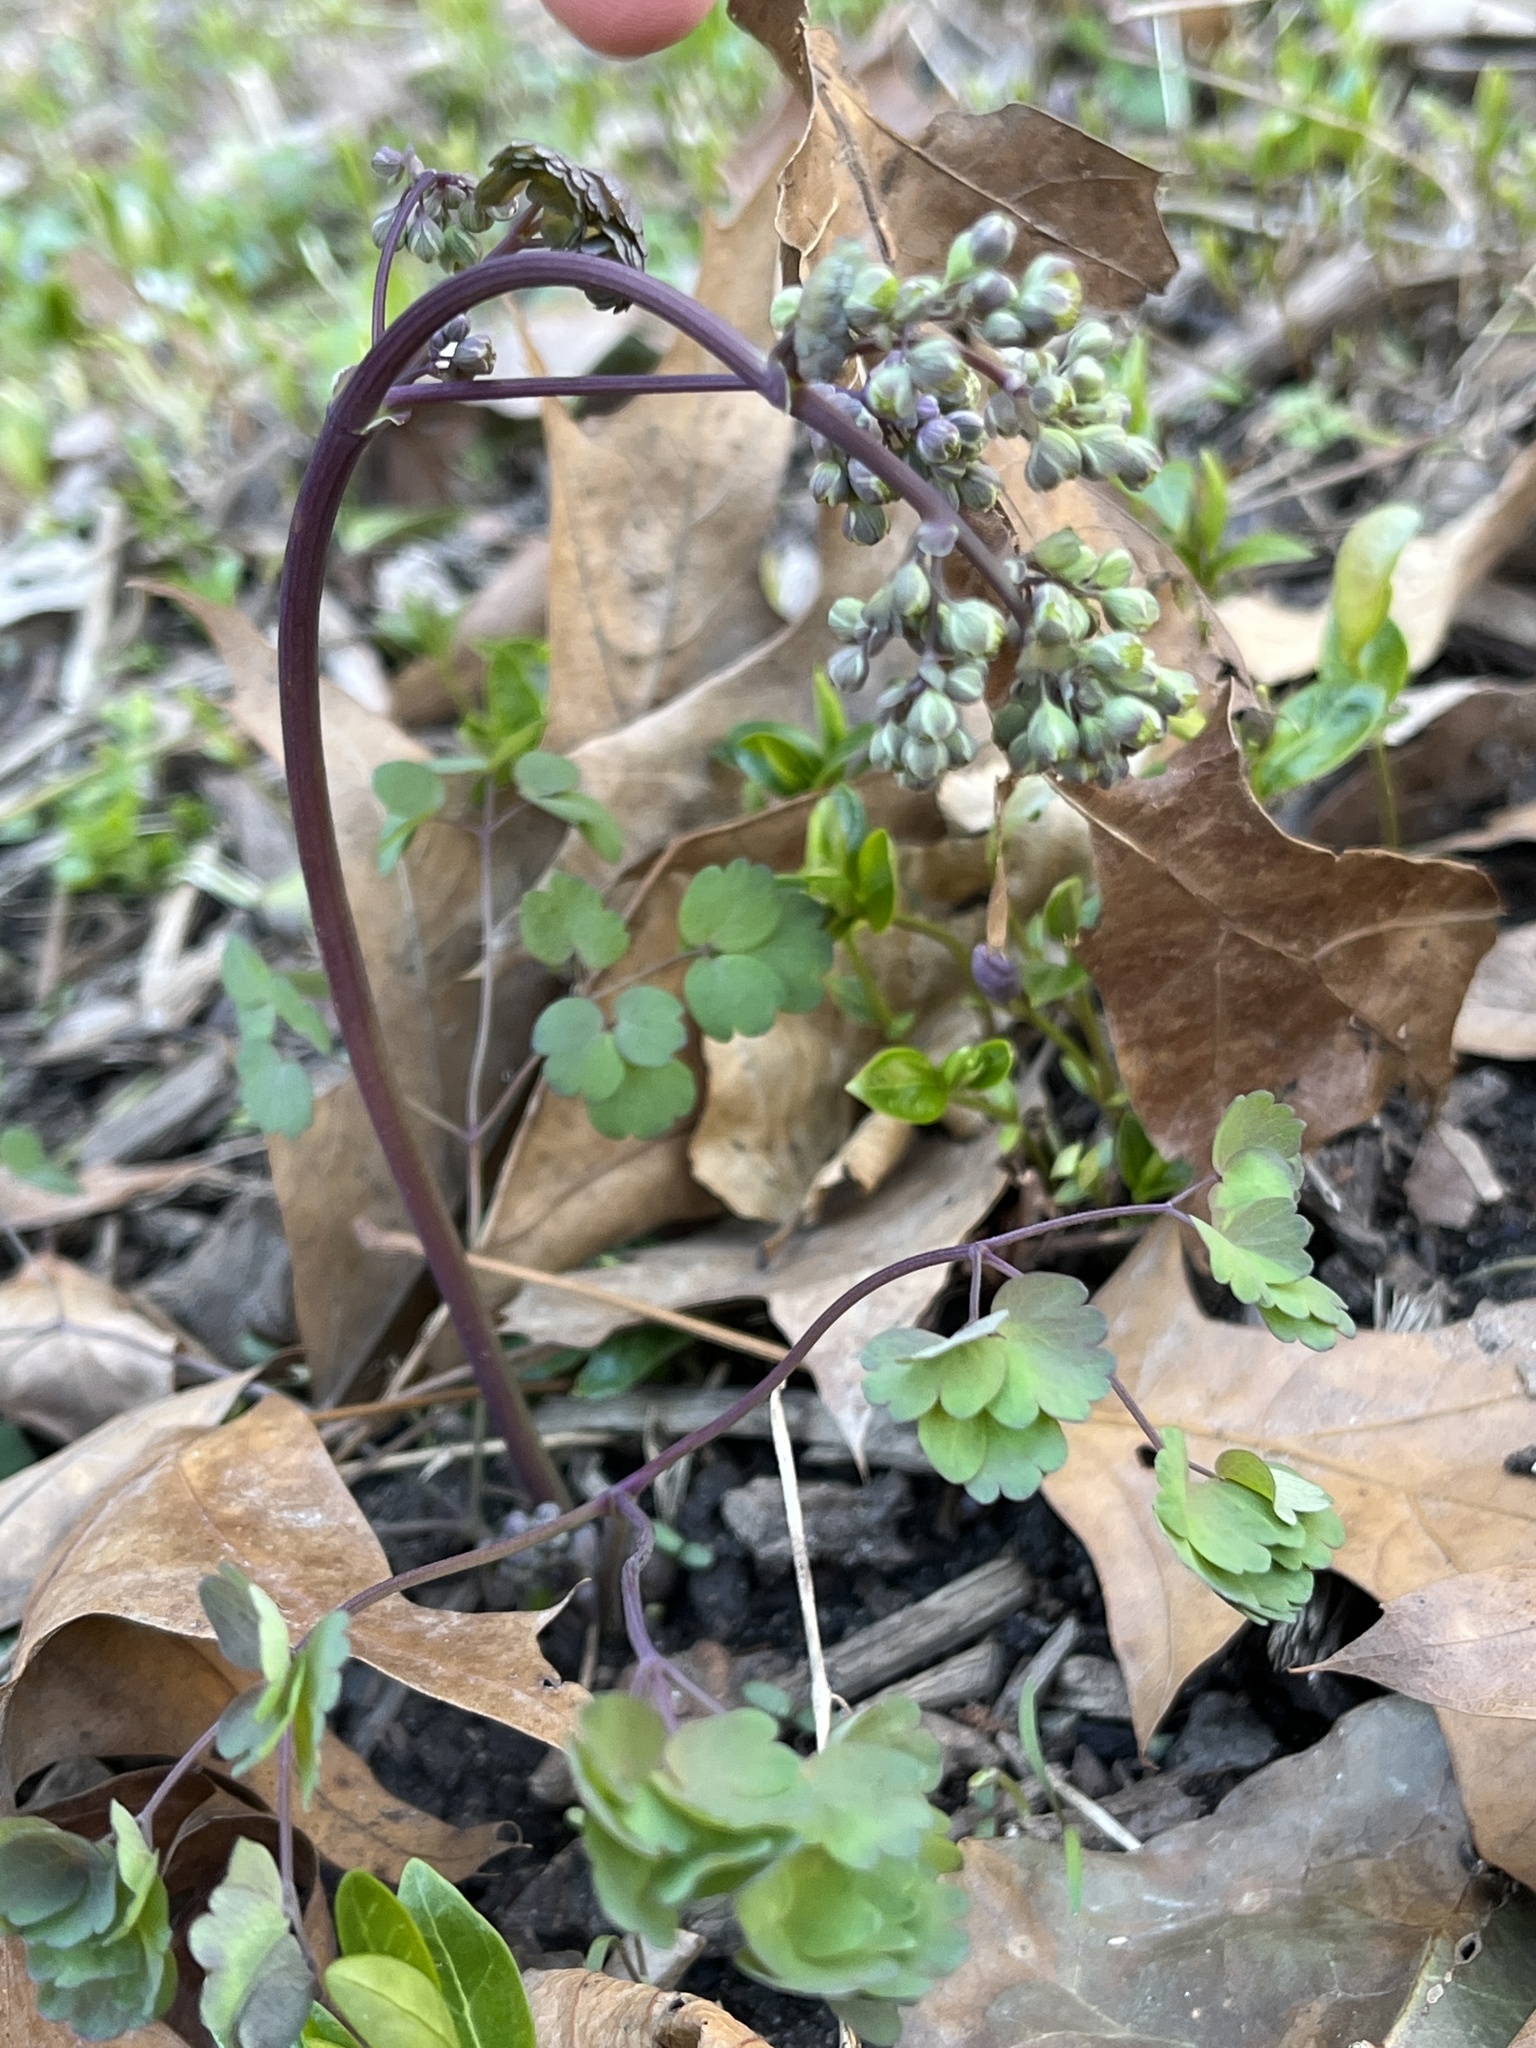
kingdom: Plantae
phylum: Tracheophyta
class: Magnoliopsida
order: Ranunculales
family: Ranunculaceae
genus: Thalictrum
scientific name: Thalictrum dioicum
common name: Early meadow-rue
